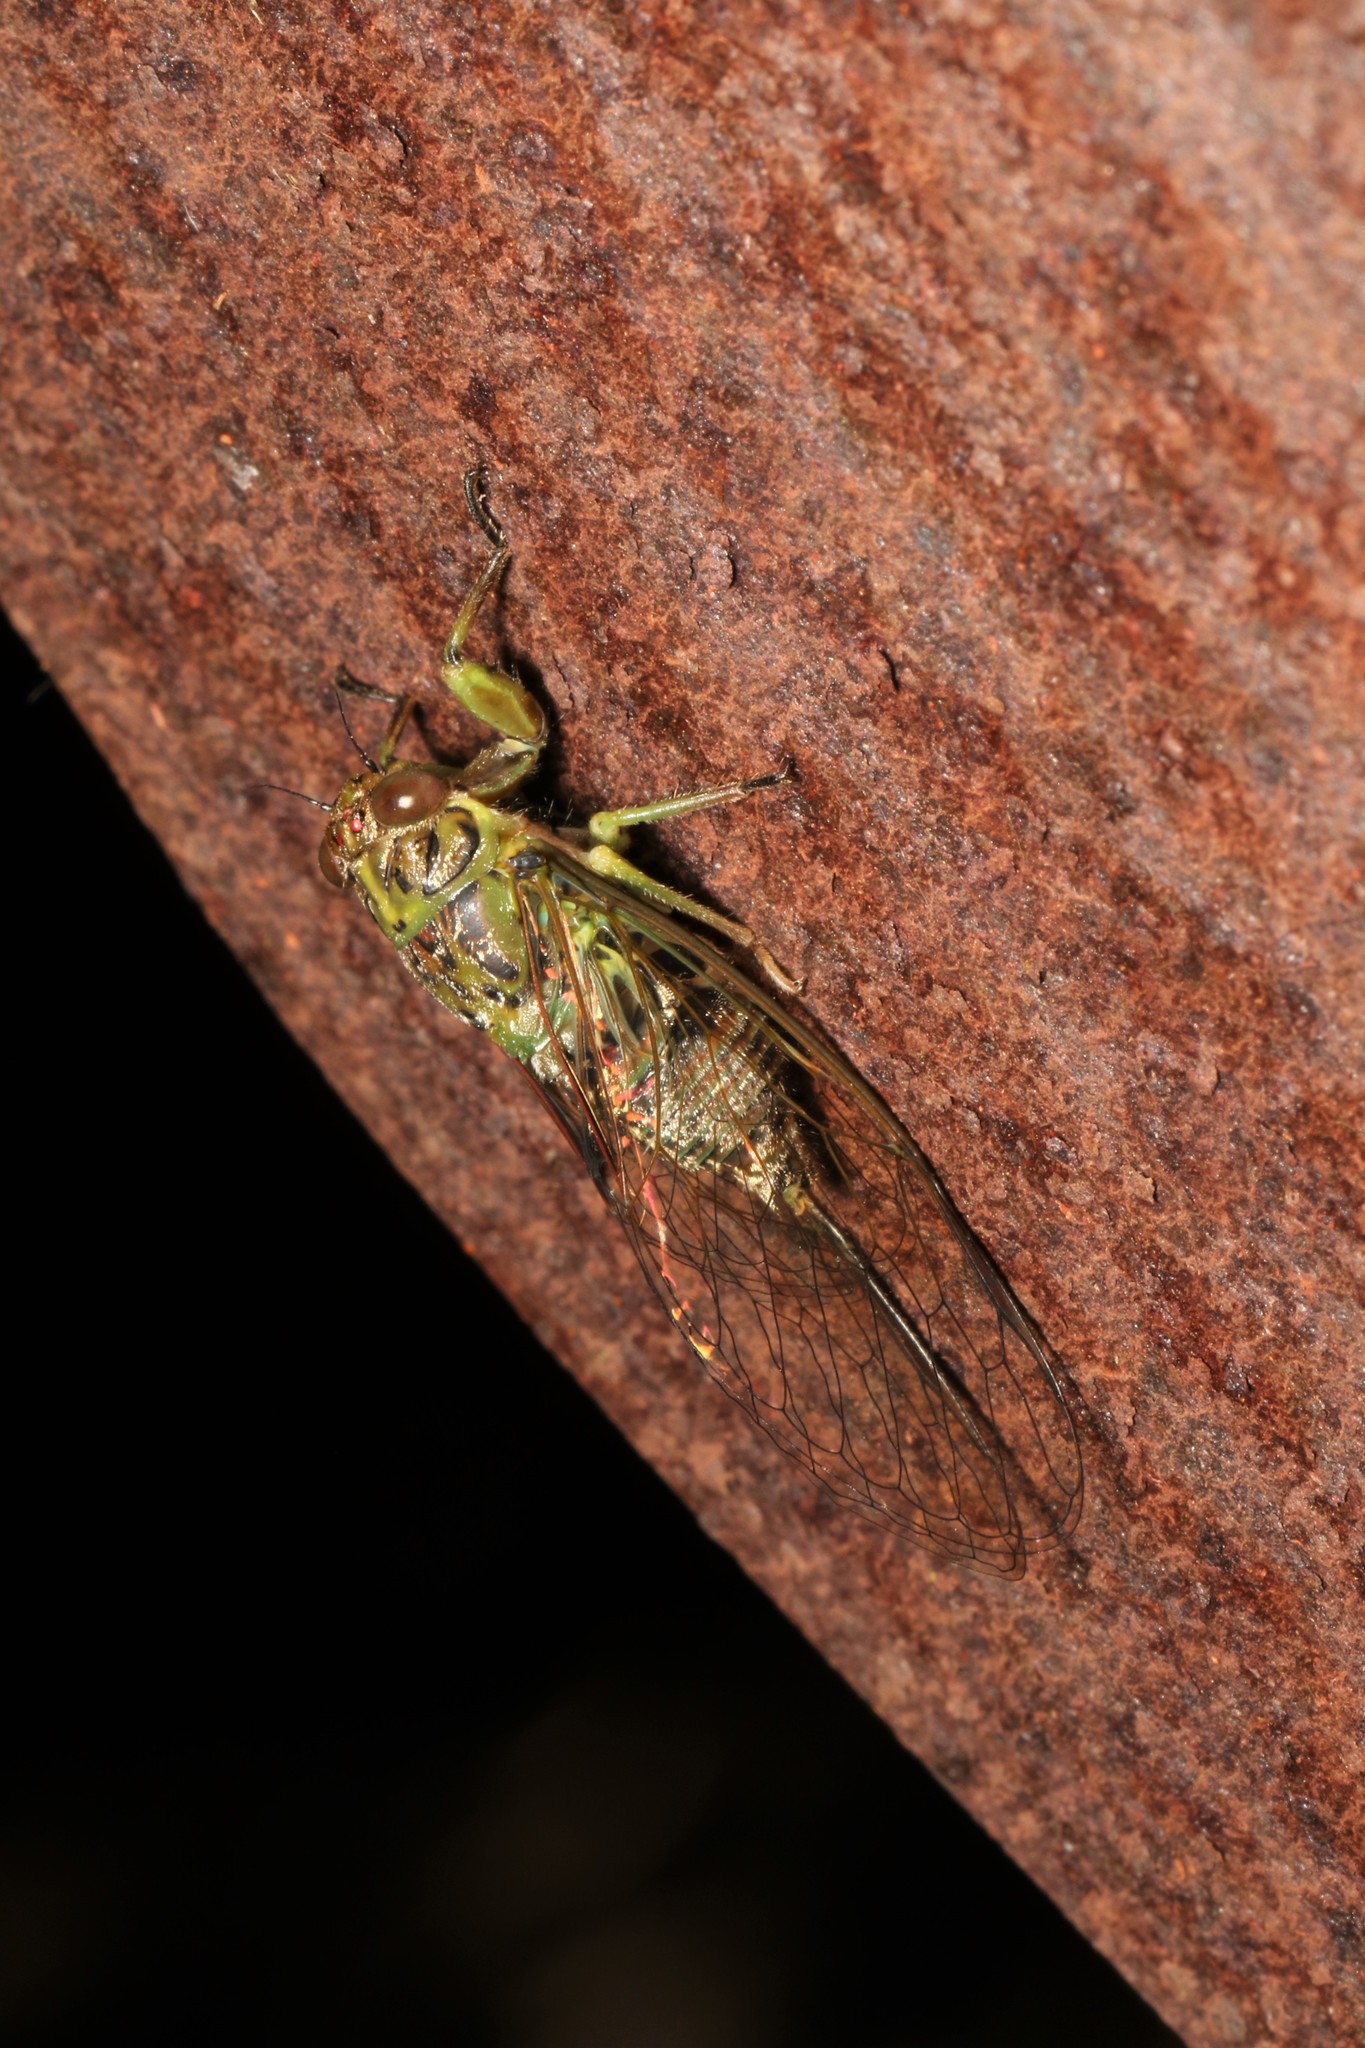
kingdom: Animalia
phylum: Arthropoda
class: Insecta
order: Hemiptera
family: Cicadidae
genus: Kikihia
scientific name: Kikihia scutellaris
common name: Lesser bronze cicada
